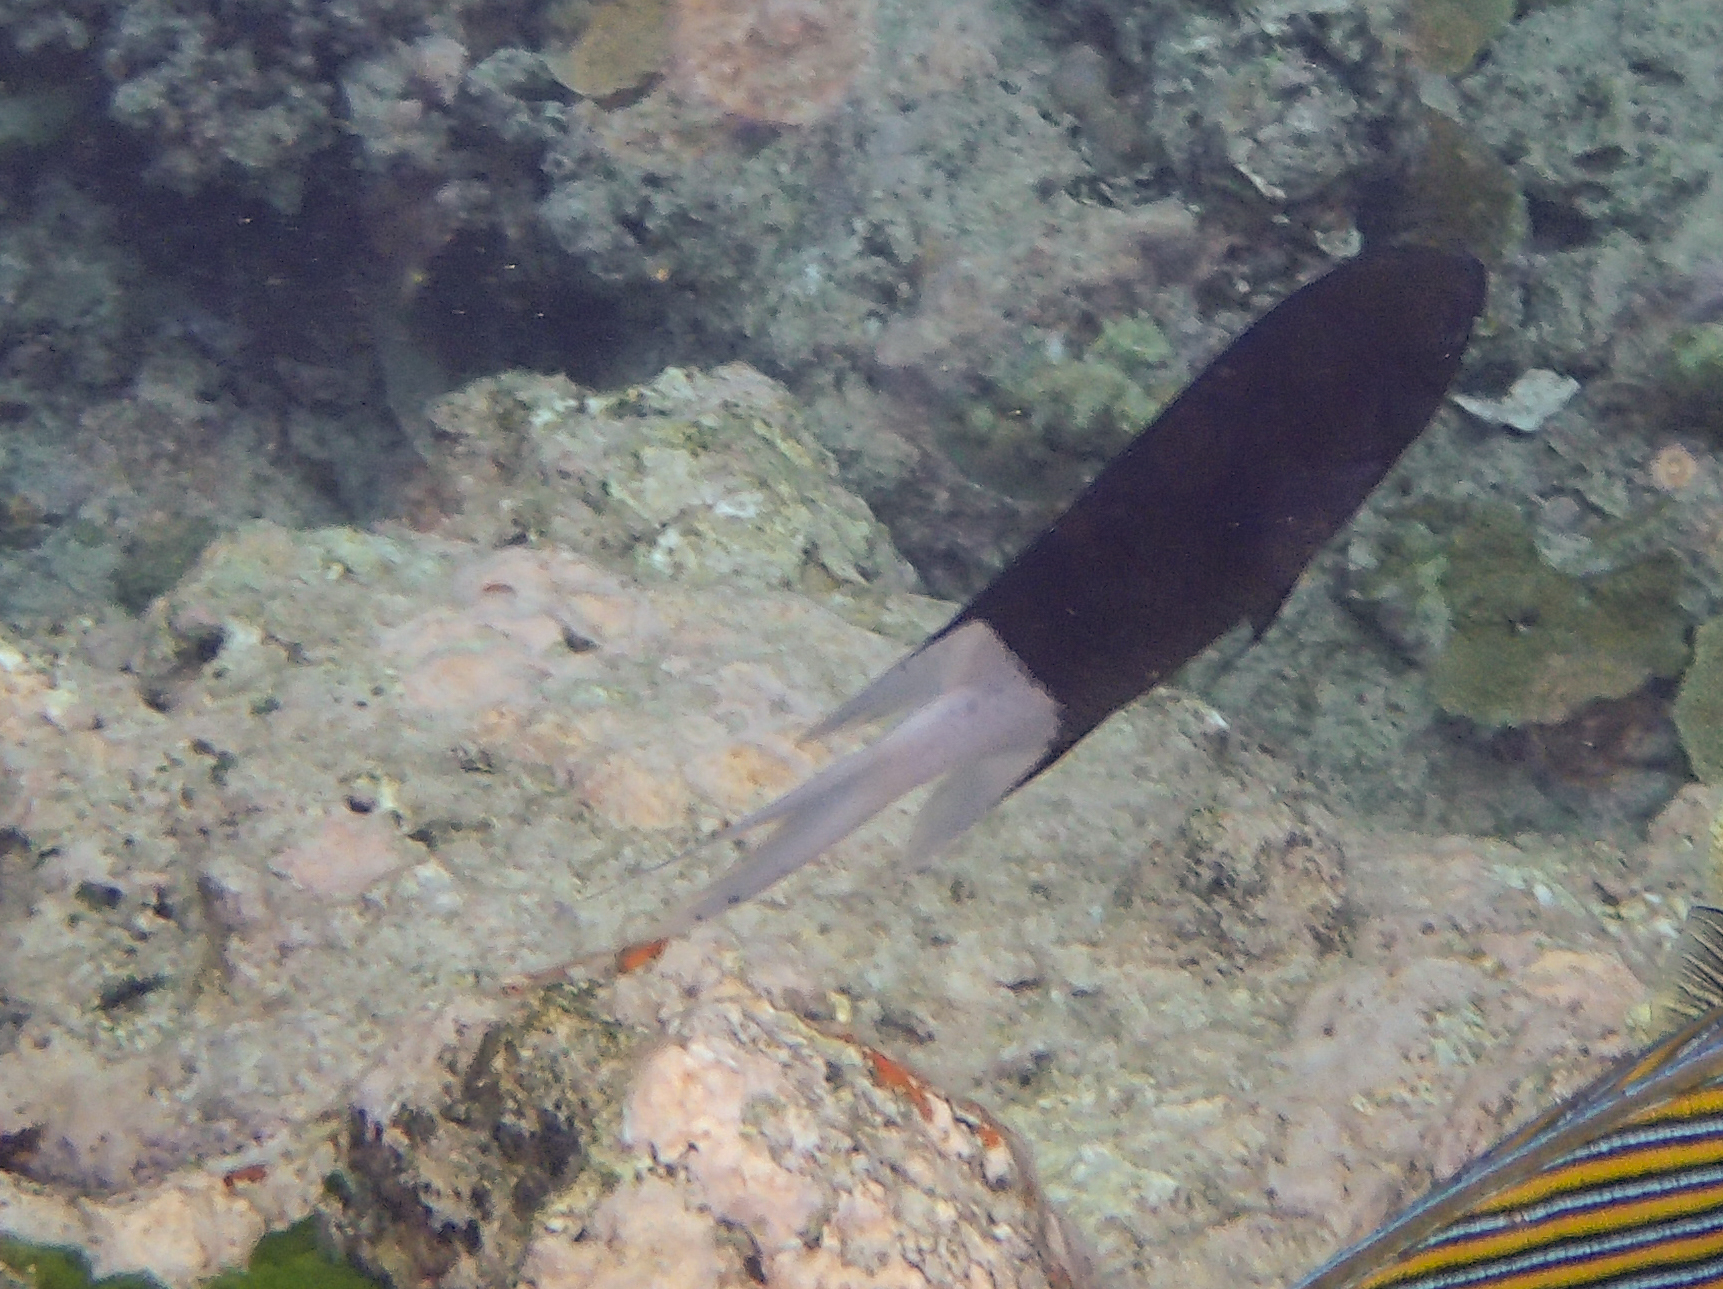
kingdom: Animalia
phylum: Chordata
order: Perciformes
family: Pomacentridae
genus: Acanthochromis
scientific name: Acanthochromis polyacanthus
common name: Spiny chromis
